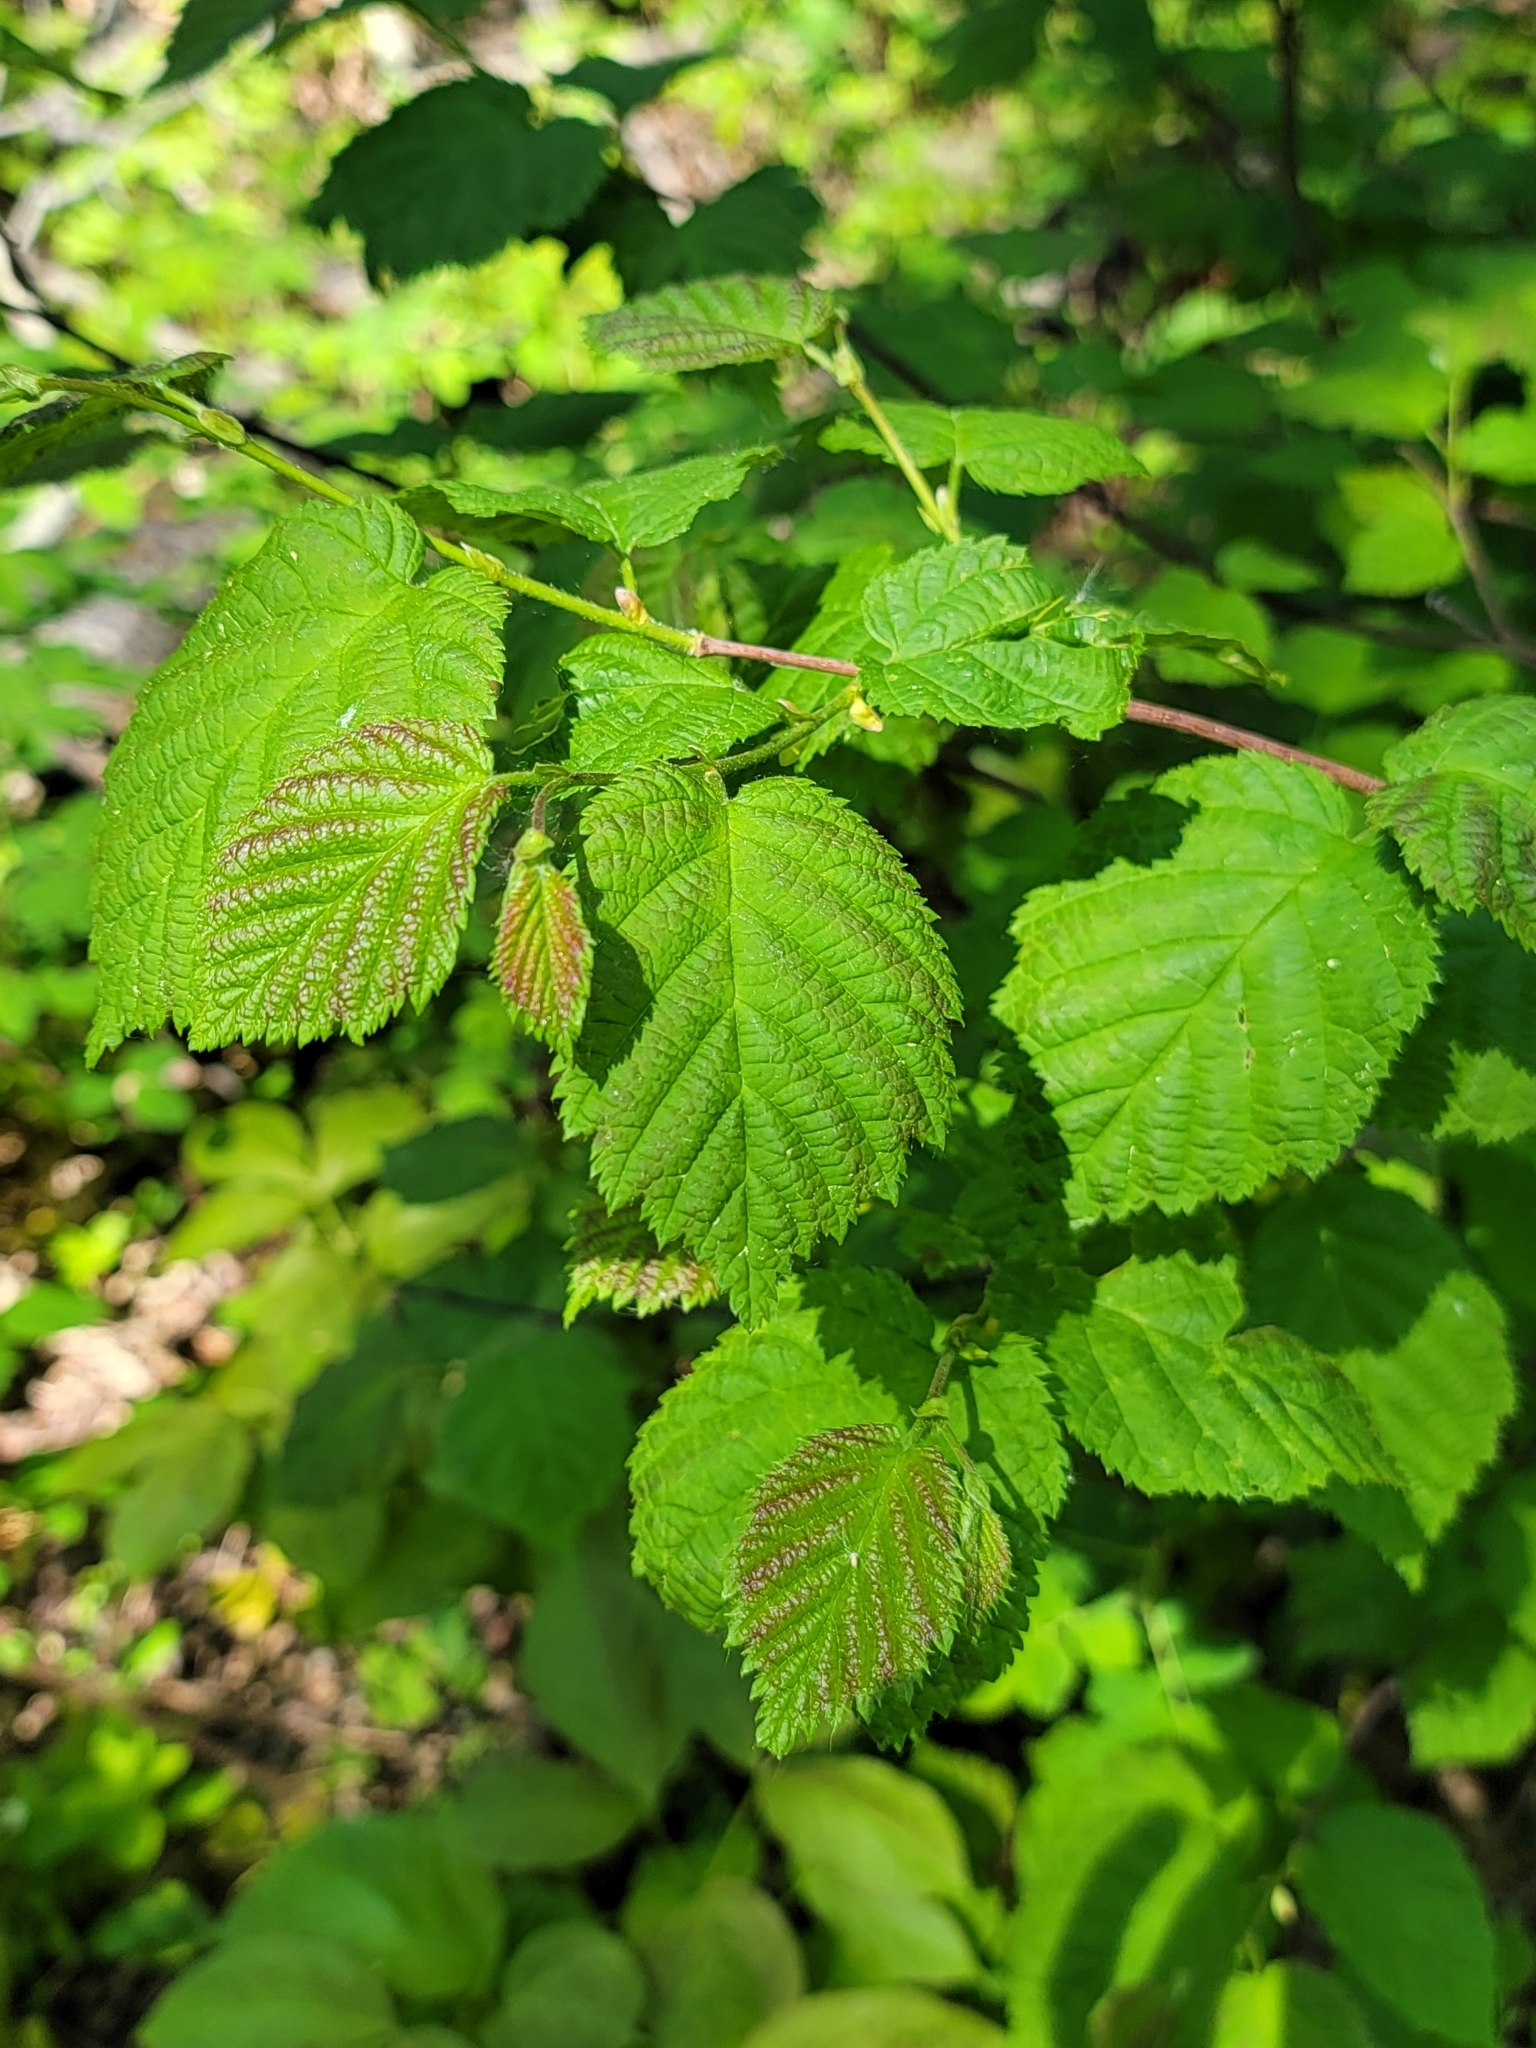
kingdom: Plantae
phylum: Tracheophyta
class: Magnoliopsida
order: Fagales
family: Betulaceae
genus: Corylus
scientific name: Corylus cornuta
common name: Beaked hazel
